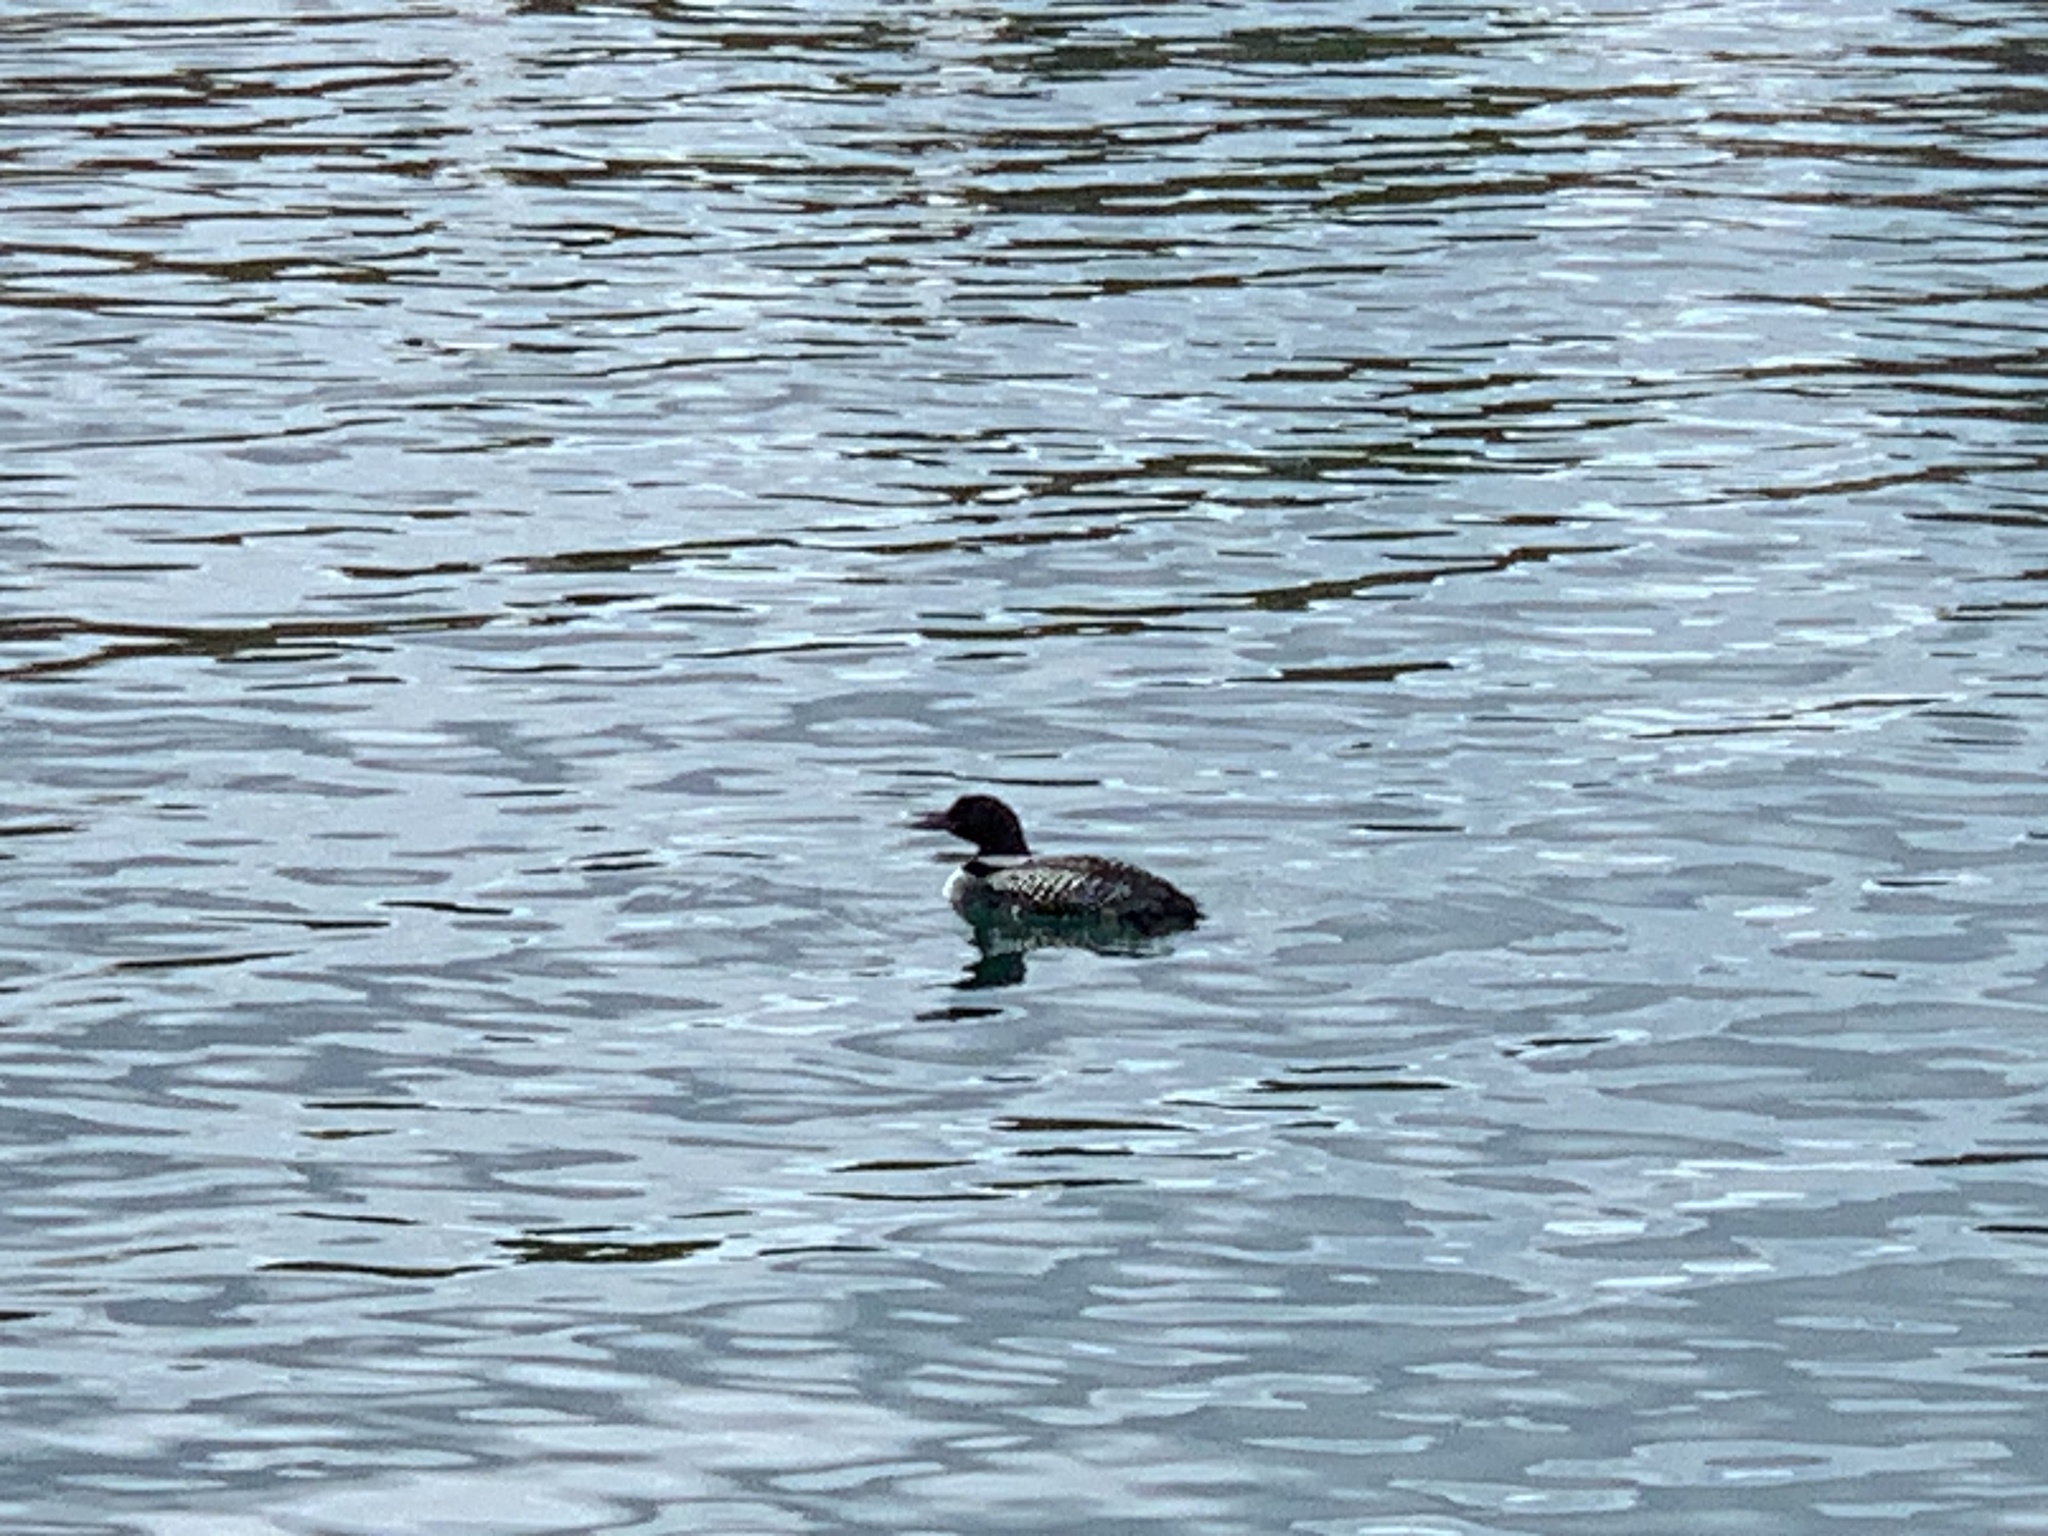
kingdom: Animalia
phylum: Chordata
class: Aves
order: Gaviiformes
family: Gaviidae
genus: Gavia
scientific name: Gavia immer
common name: Common loon
